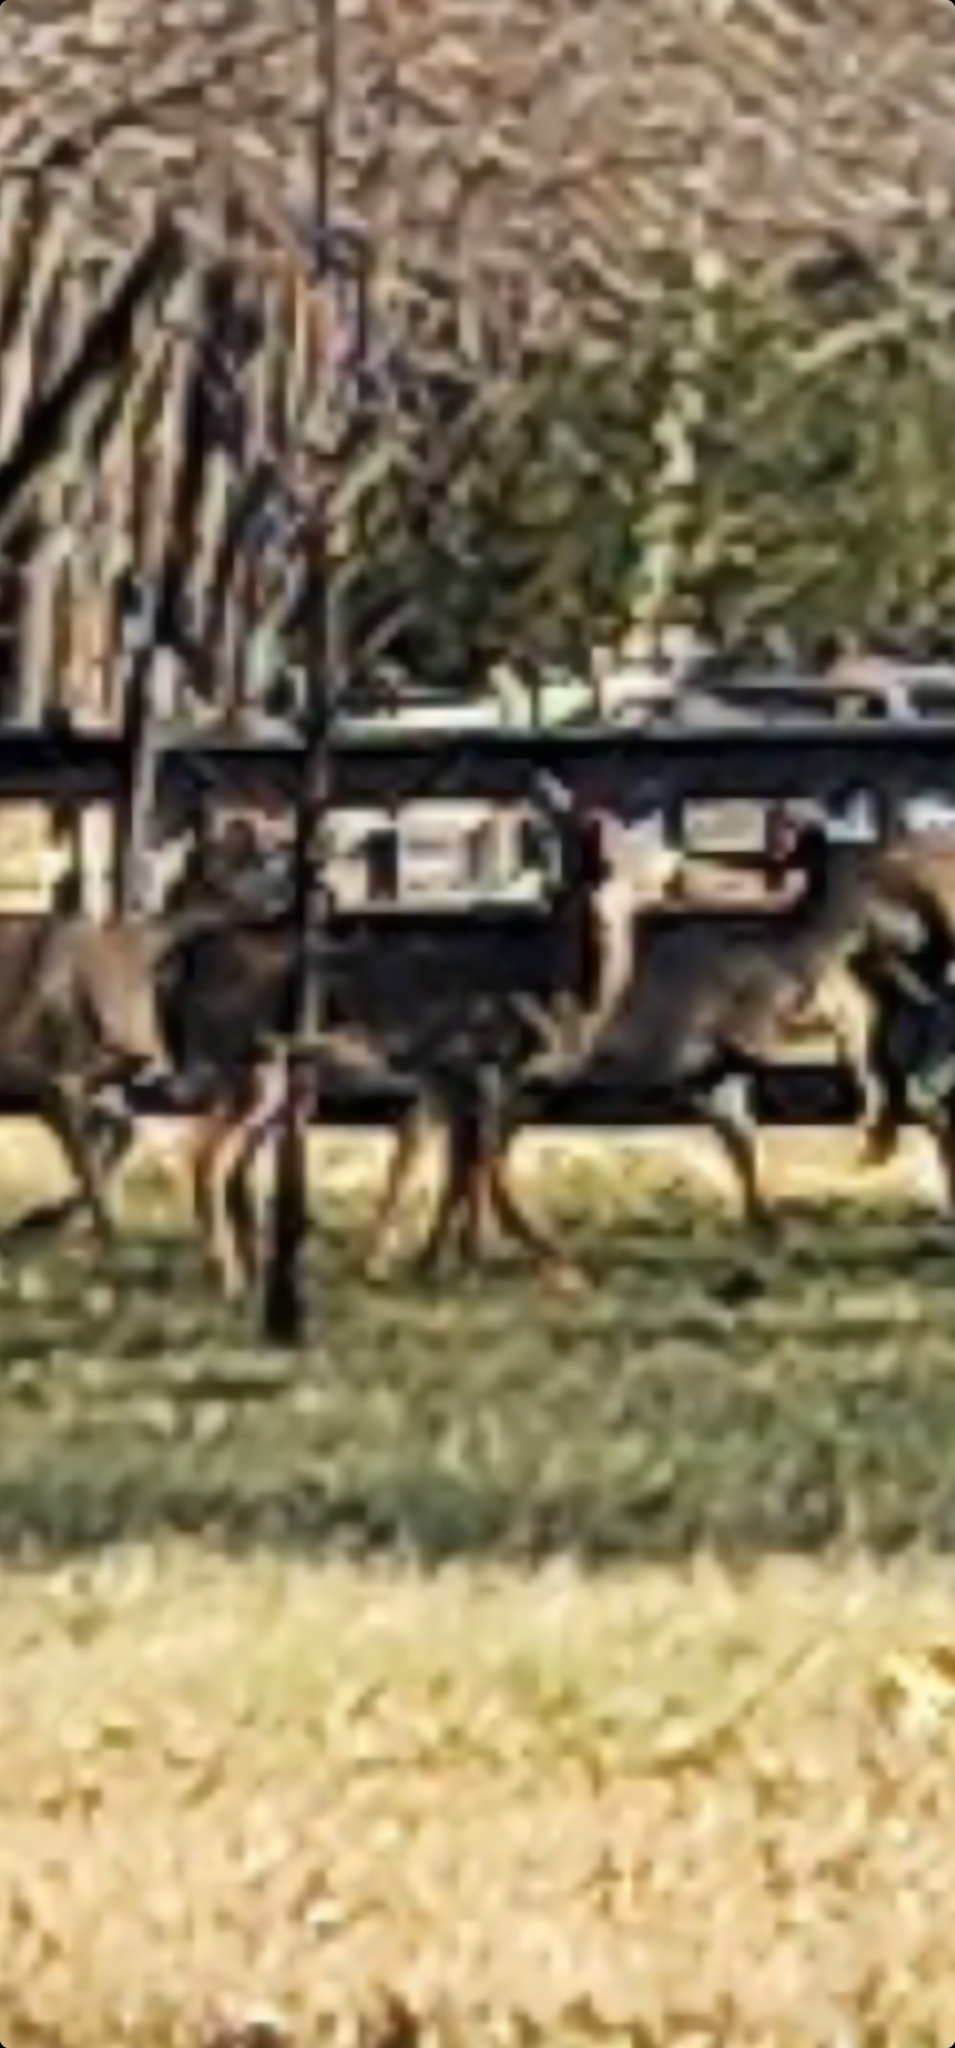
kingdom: Animalia
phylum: Chordata
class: Mammalia
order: Artiodactyla
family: Cervidae
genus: Odocoileus
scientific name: Odocoileus virginianus
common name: White-tailed deer
